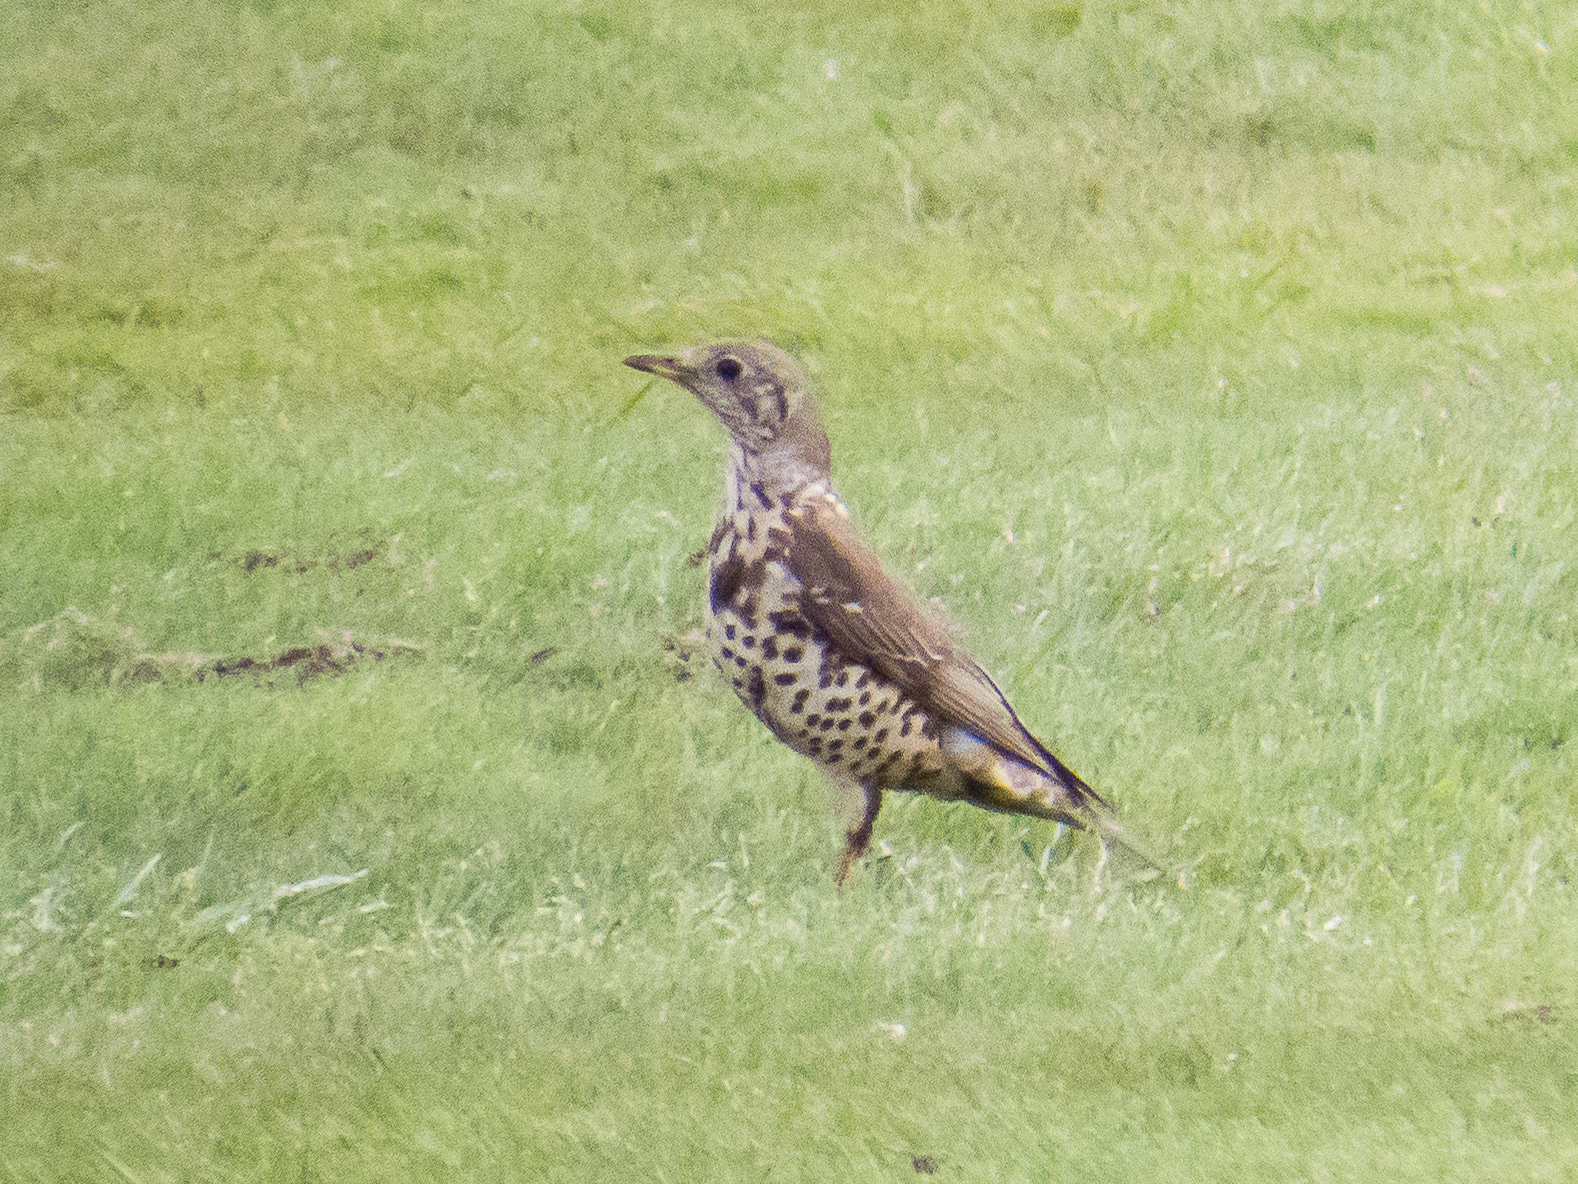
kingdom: Animalia
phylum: Chordata
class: Aves
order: Passeriformes
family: Turdidae
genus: Turdus
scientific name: Turdus viscivorus
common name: Mistle thrush
